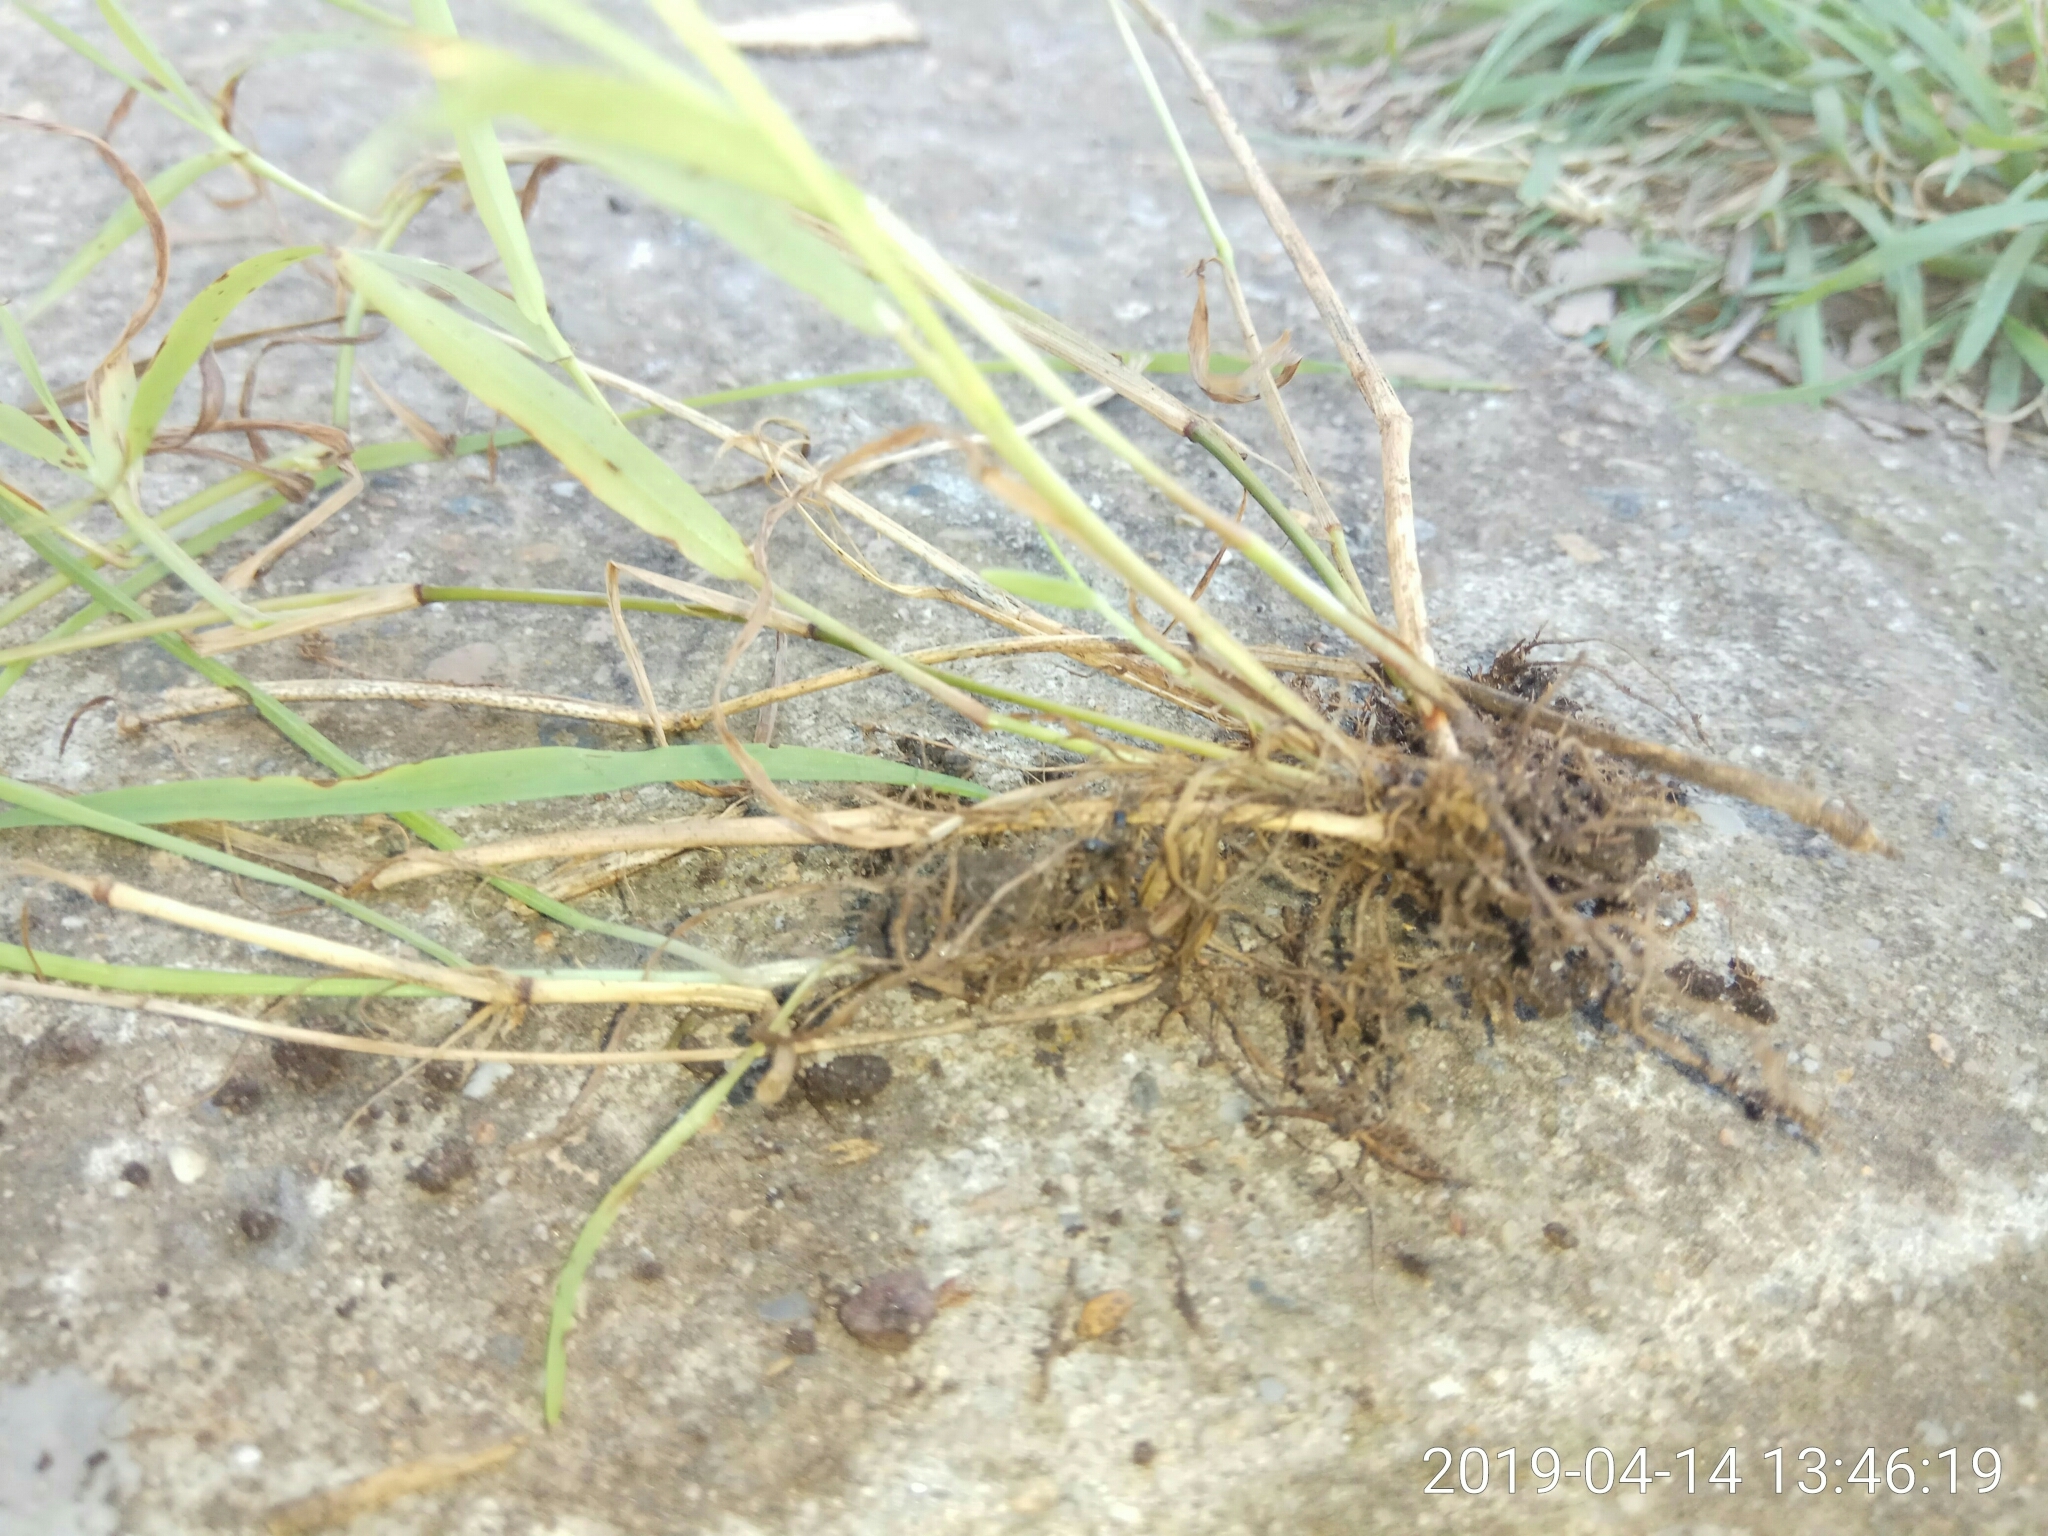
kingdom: Plantae
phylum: Tracheophyta
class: Liliopsida
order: Poales
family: Poaceae
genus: Ehrharta
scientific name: Ehrharta erecta
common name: Panic veldtgrass
